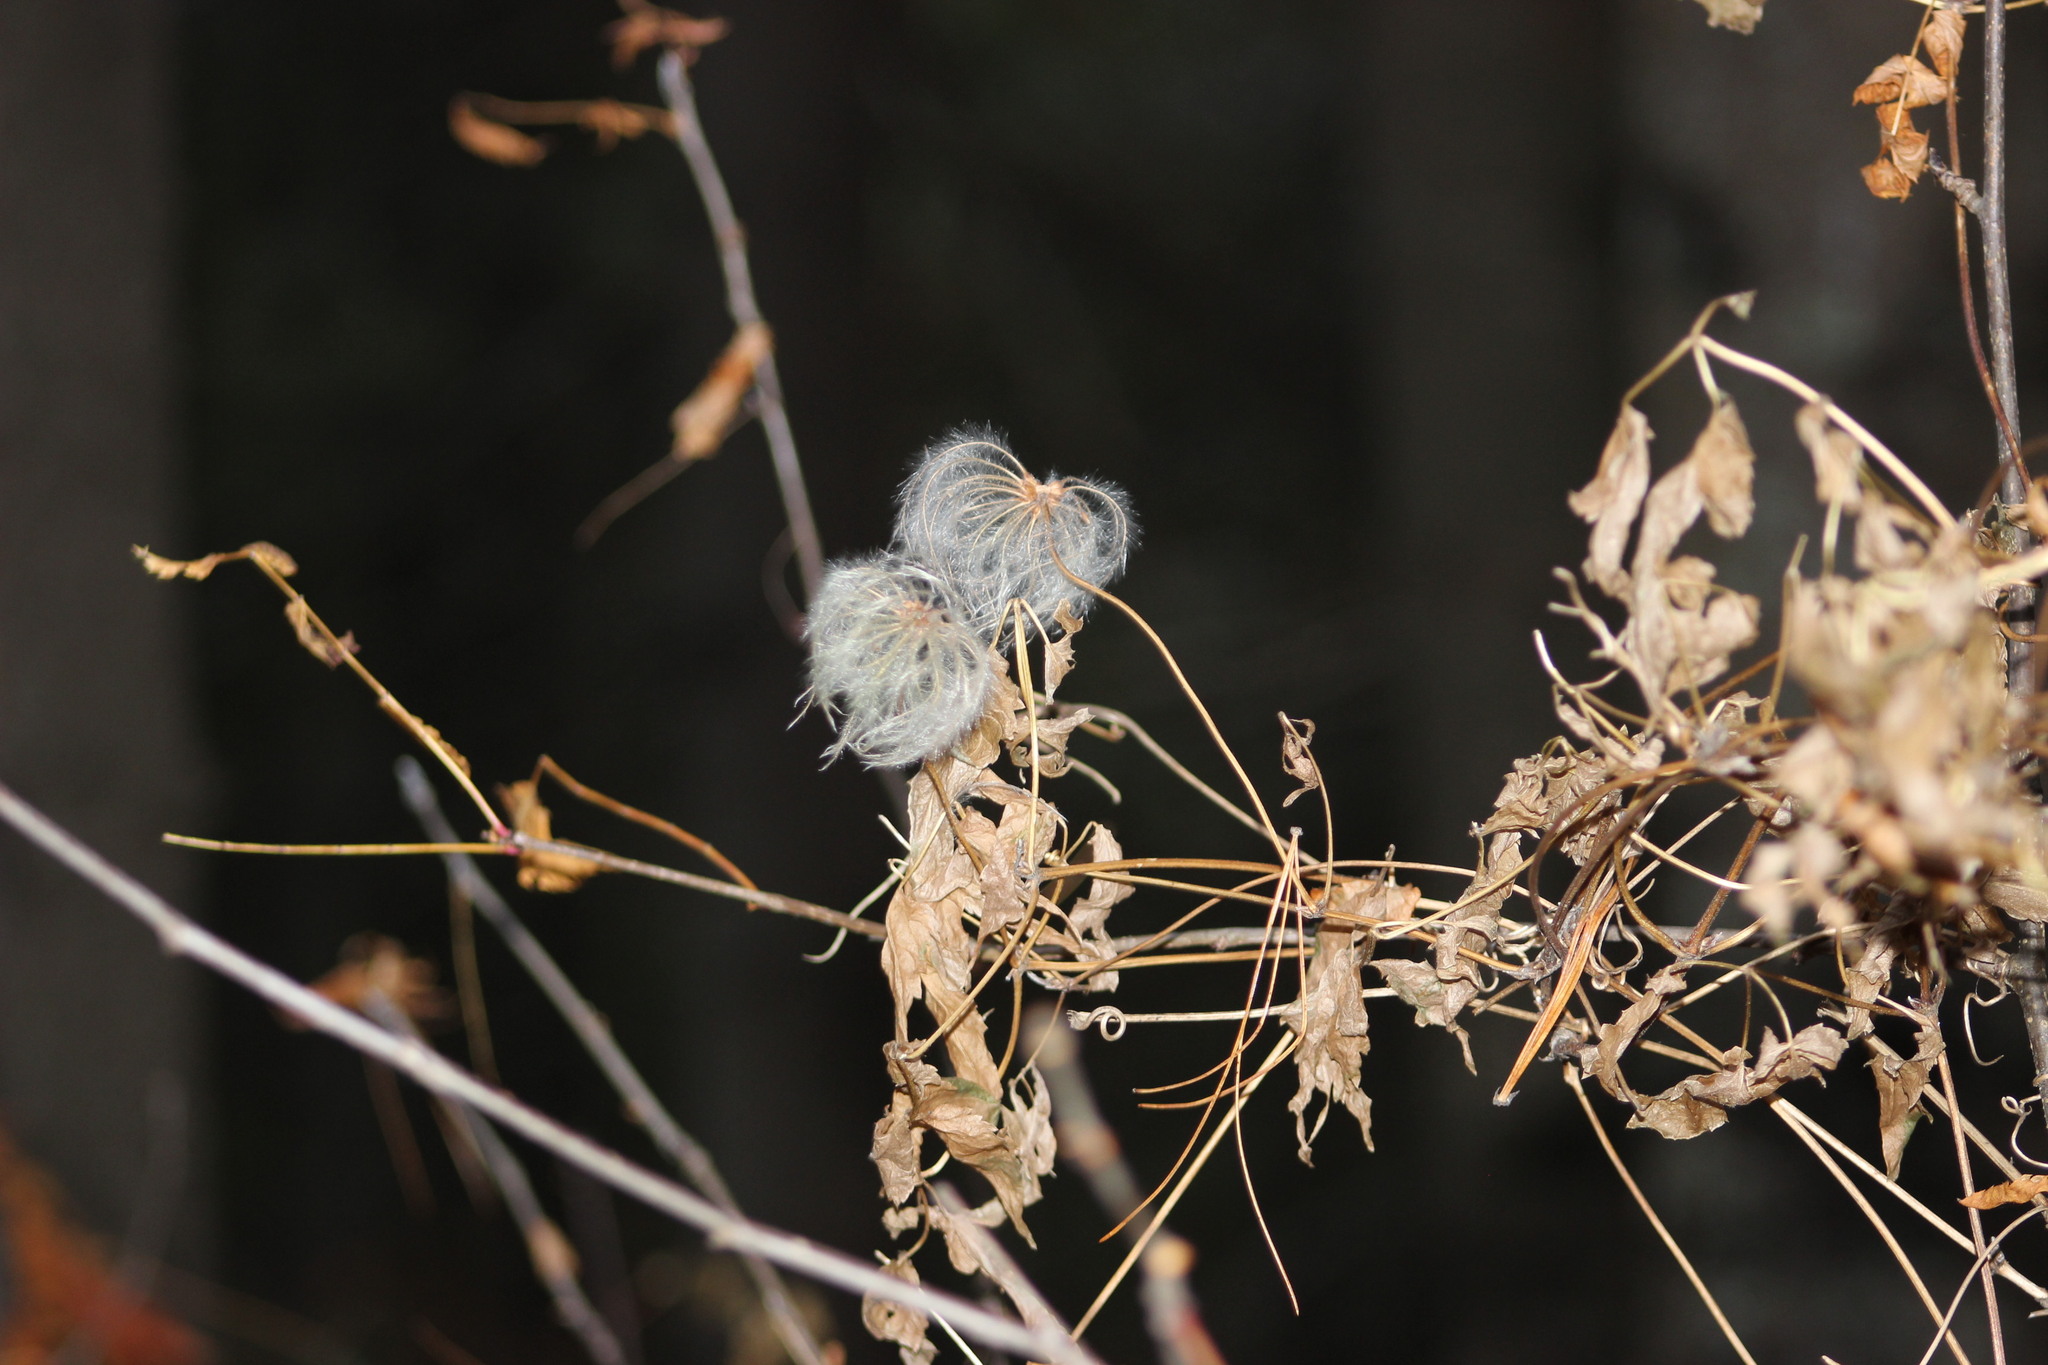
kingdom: Plantae
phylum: Tracheophyta
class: Magnoliopsida
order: Ranunculales
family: Ranunculaceae
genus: Clematis
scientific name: Clematis sibirica
